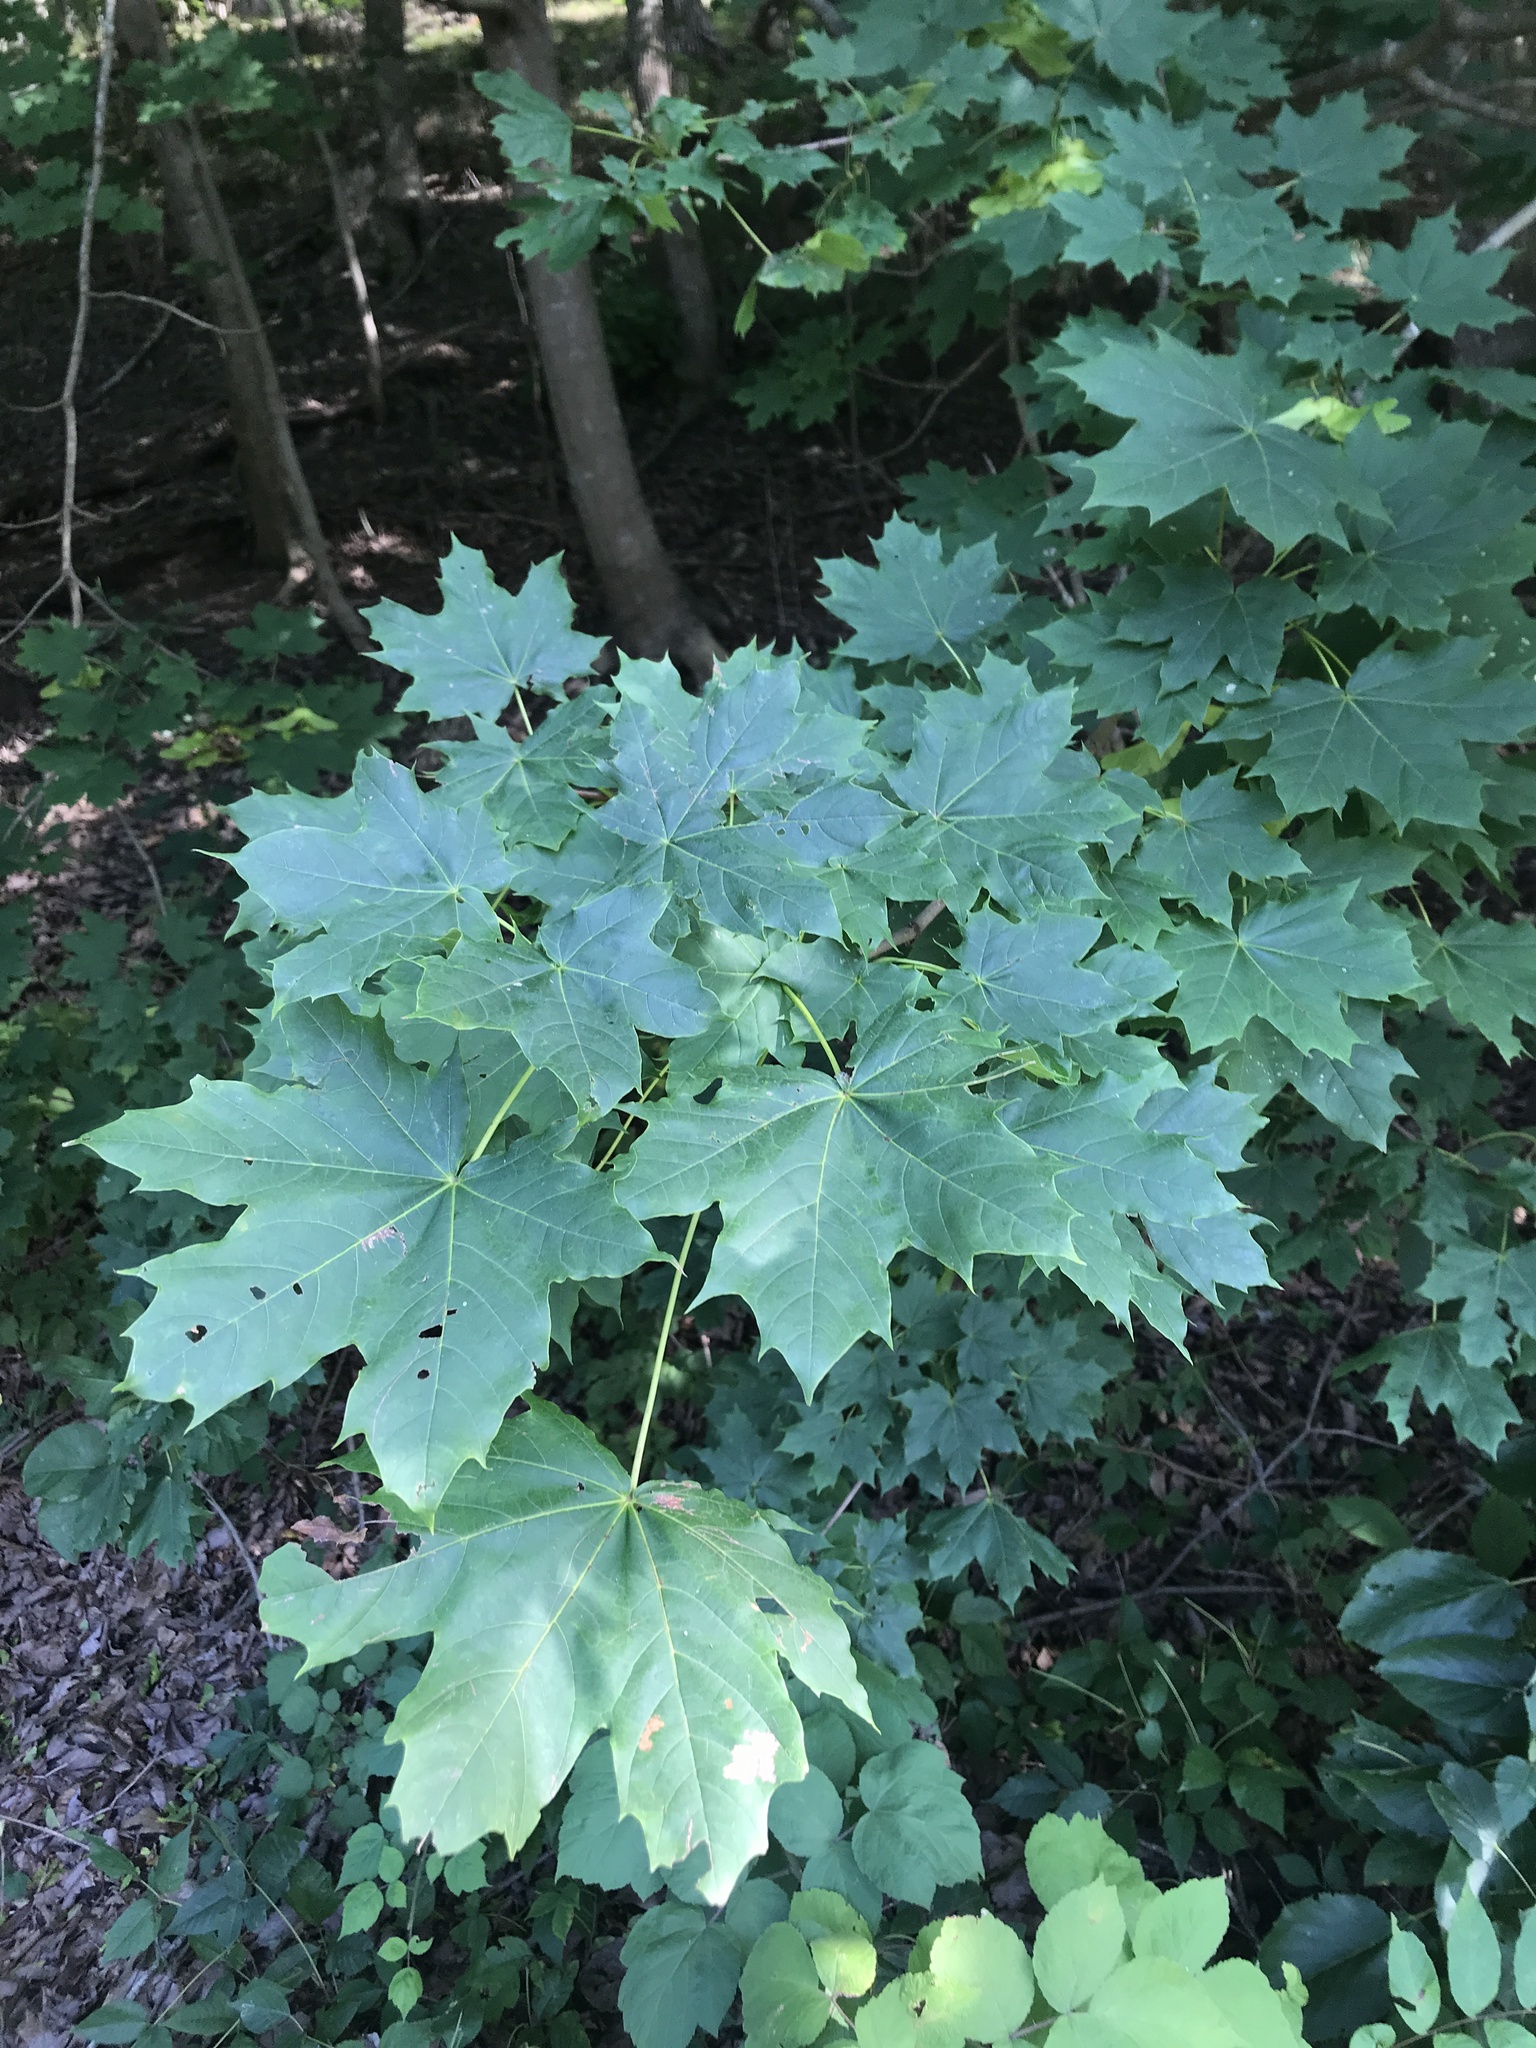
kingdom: Plantae
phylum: Tracheophyta
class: Magnoliopsida
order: Sapindales
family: Sapindaceae
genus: Acer
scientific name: Acer platanoides
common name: Norway maple
